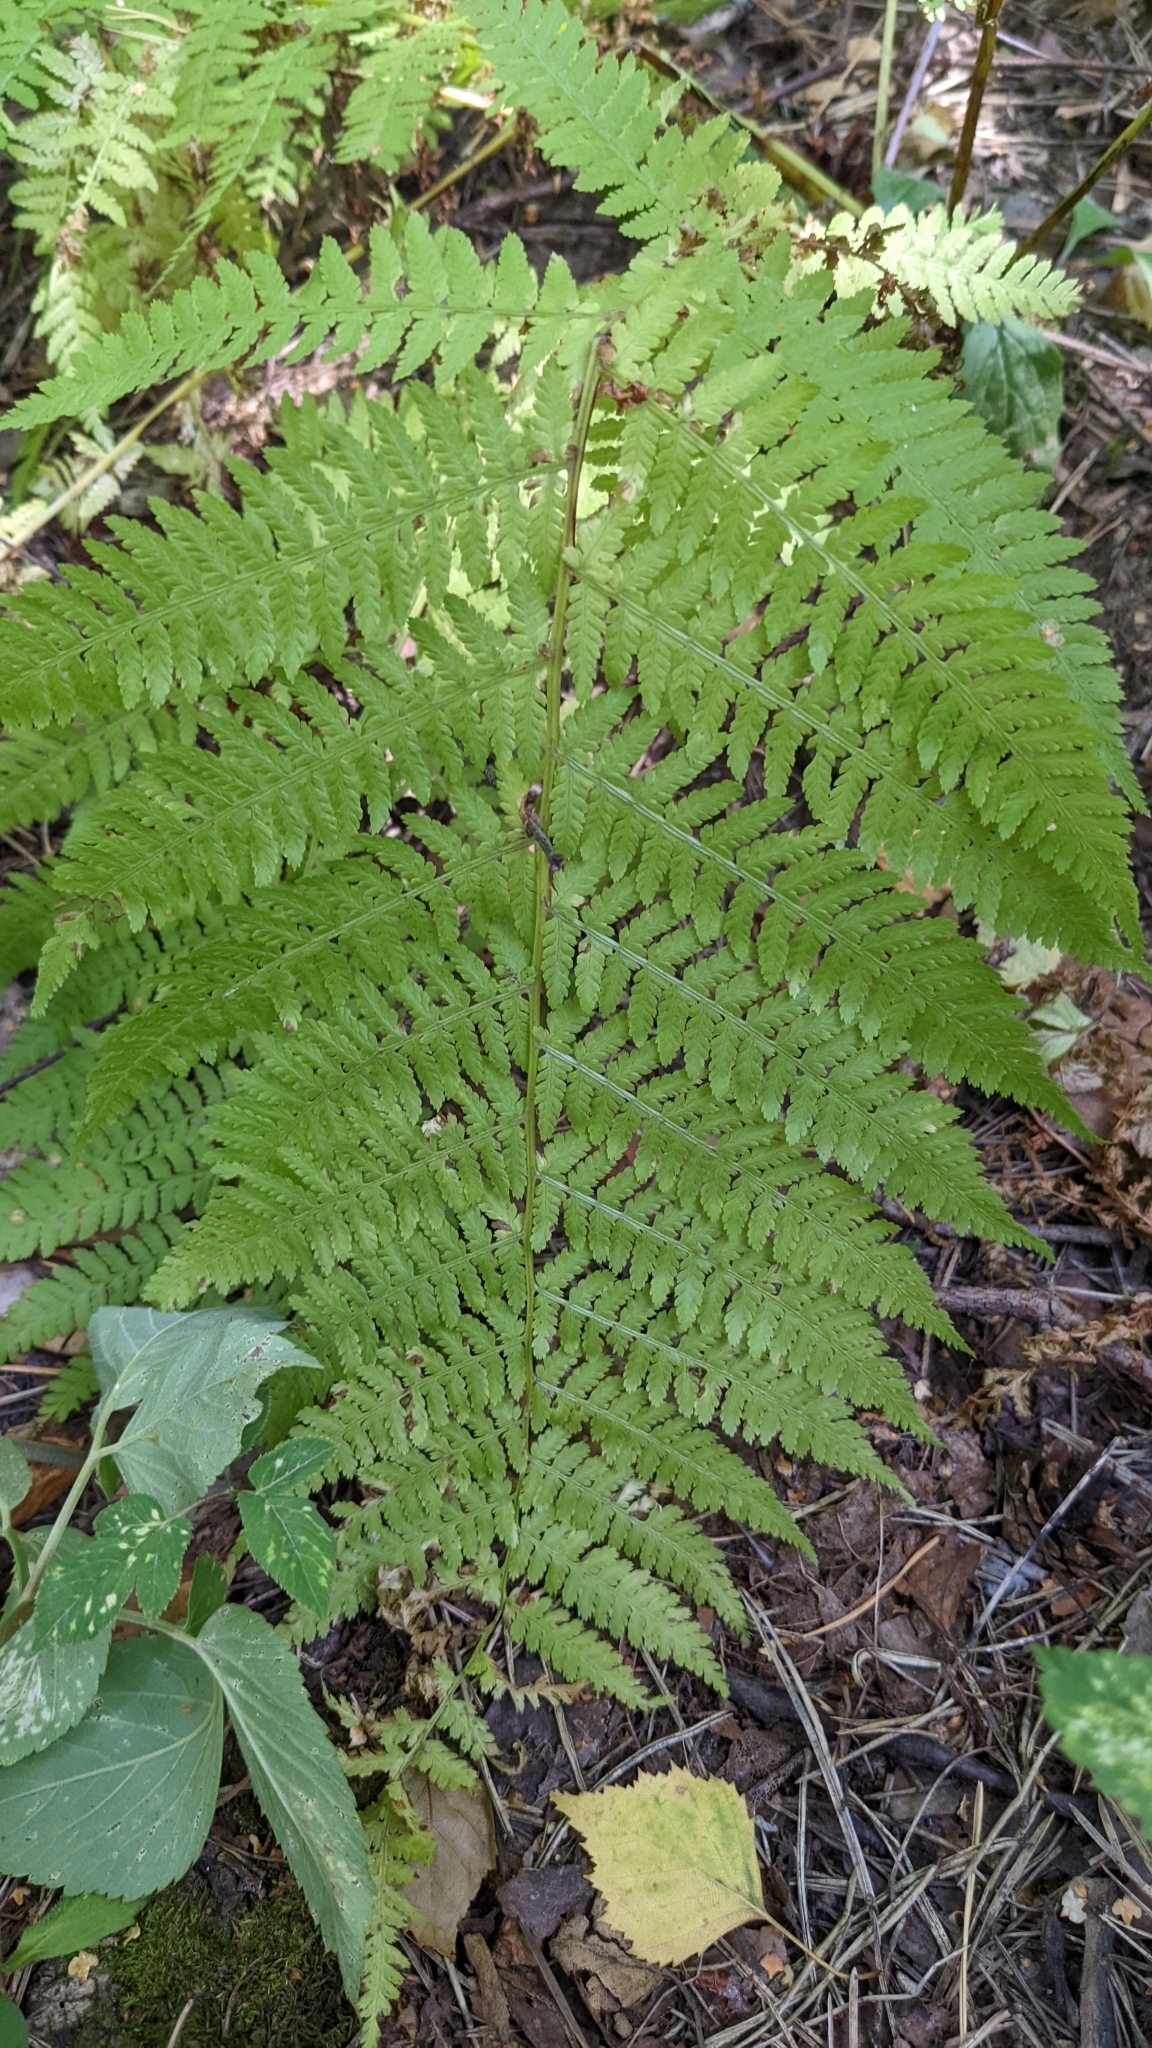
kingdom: Plantae
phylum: Tracheophyta
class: Polypodiopsida
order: Polypodiales
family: Athyriaceae
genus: Athyrium
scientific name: Athyrium filix-femina
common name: Lady fern
